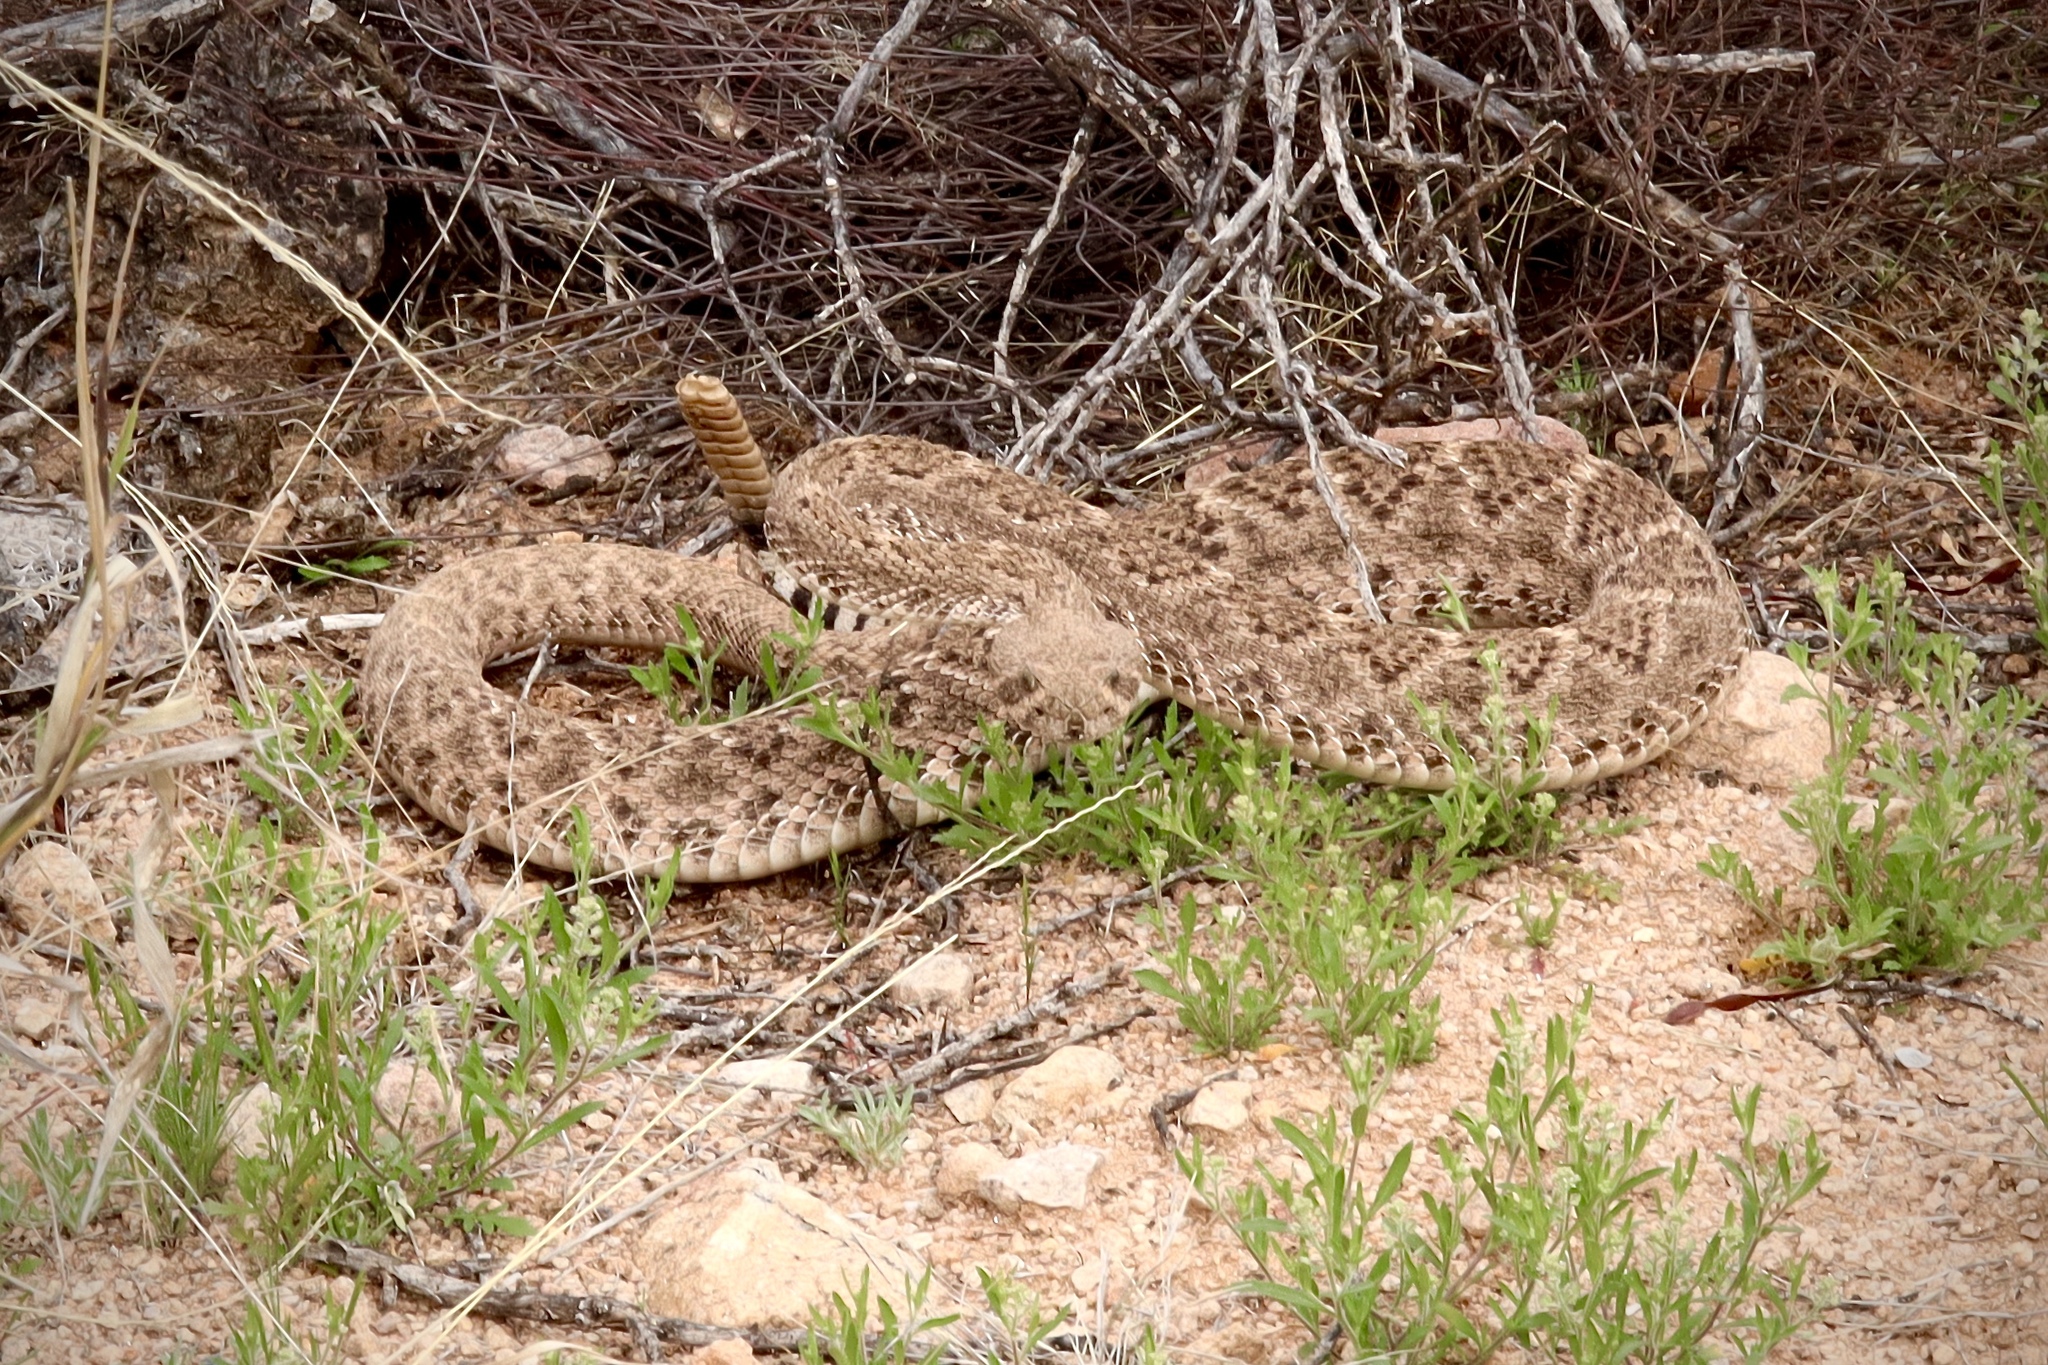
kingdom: Animalia
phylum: Chordata
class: Squamata
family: Viperidae
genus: Crotalus
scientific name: Crotalus atrox
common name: Western diamond-backed rattlesnake
